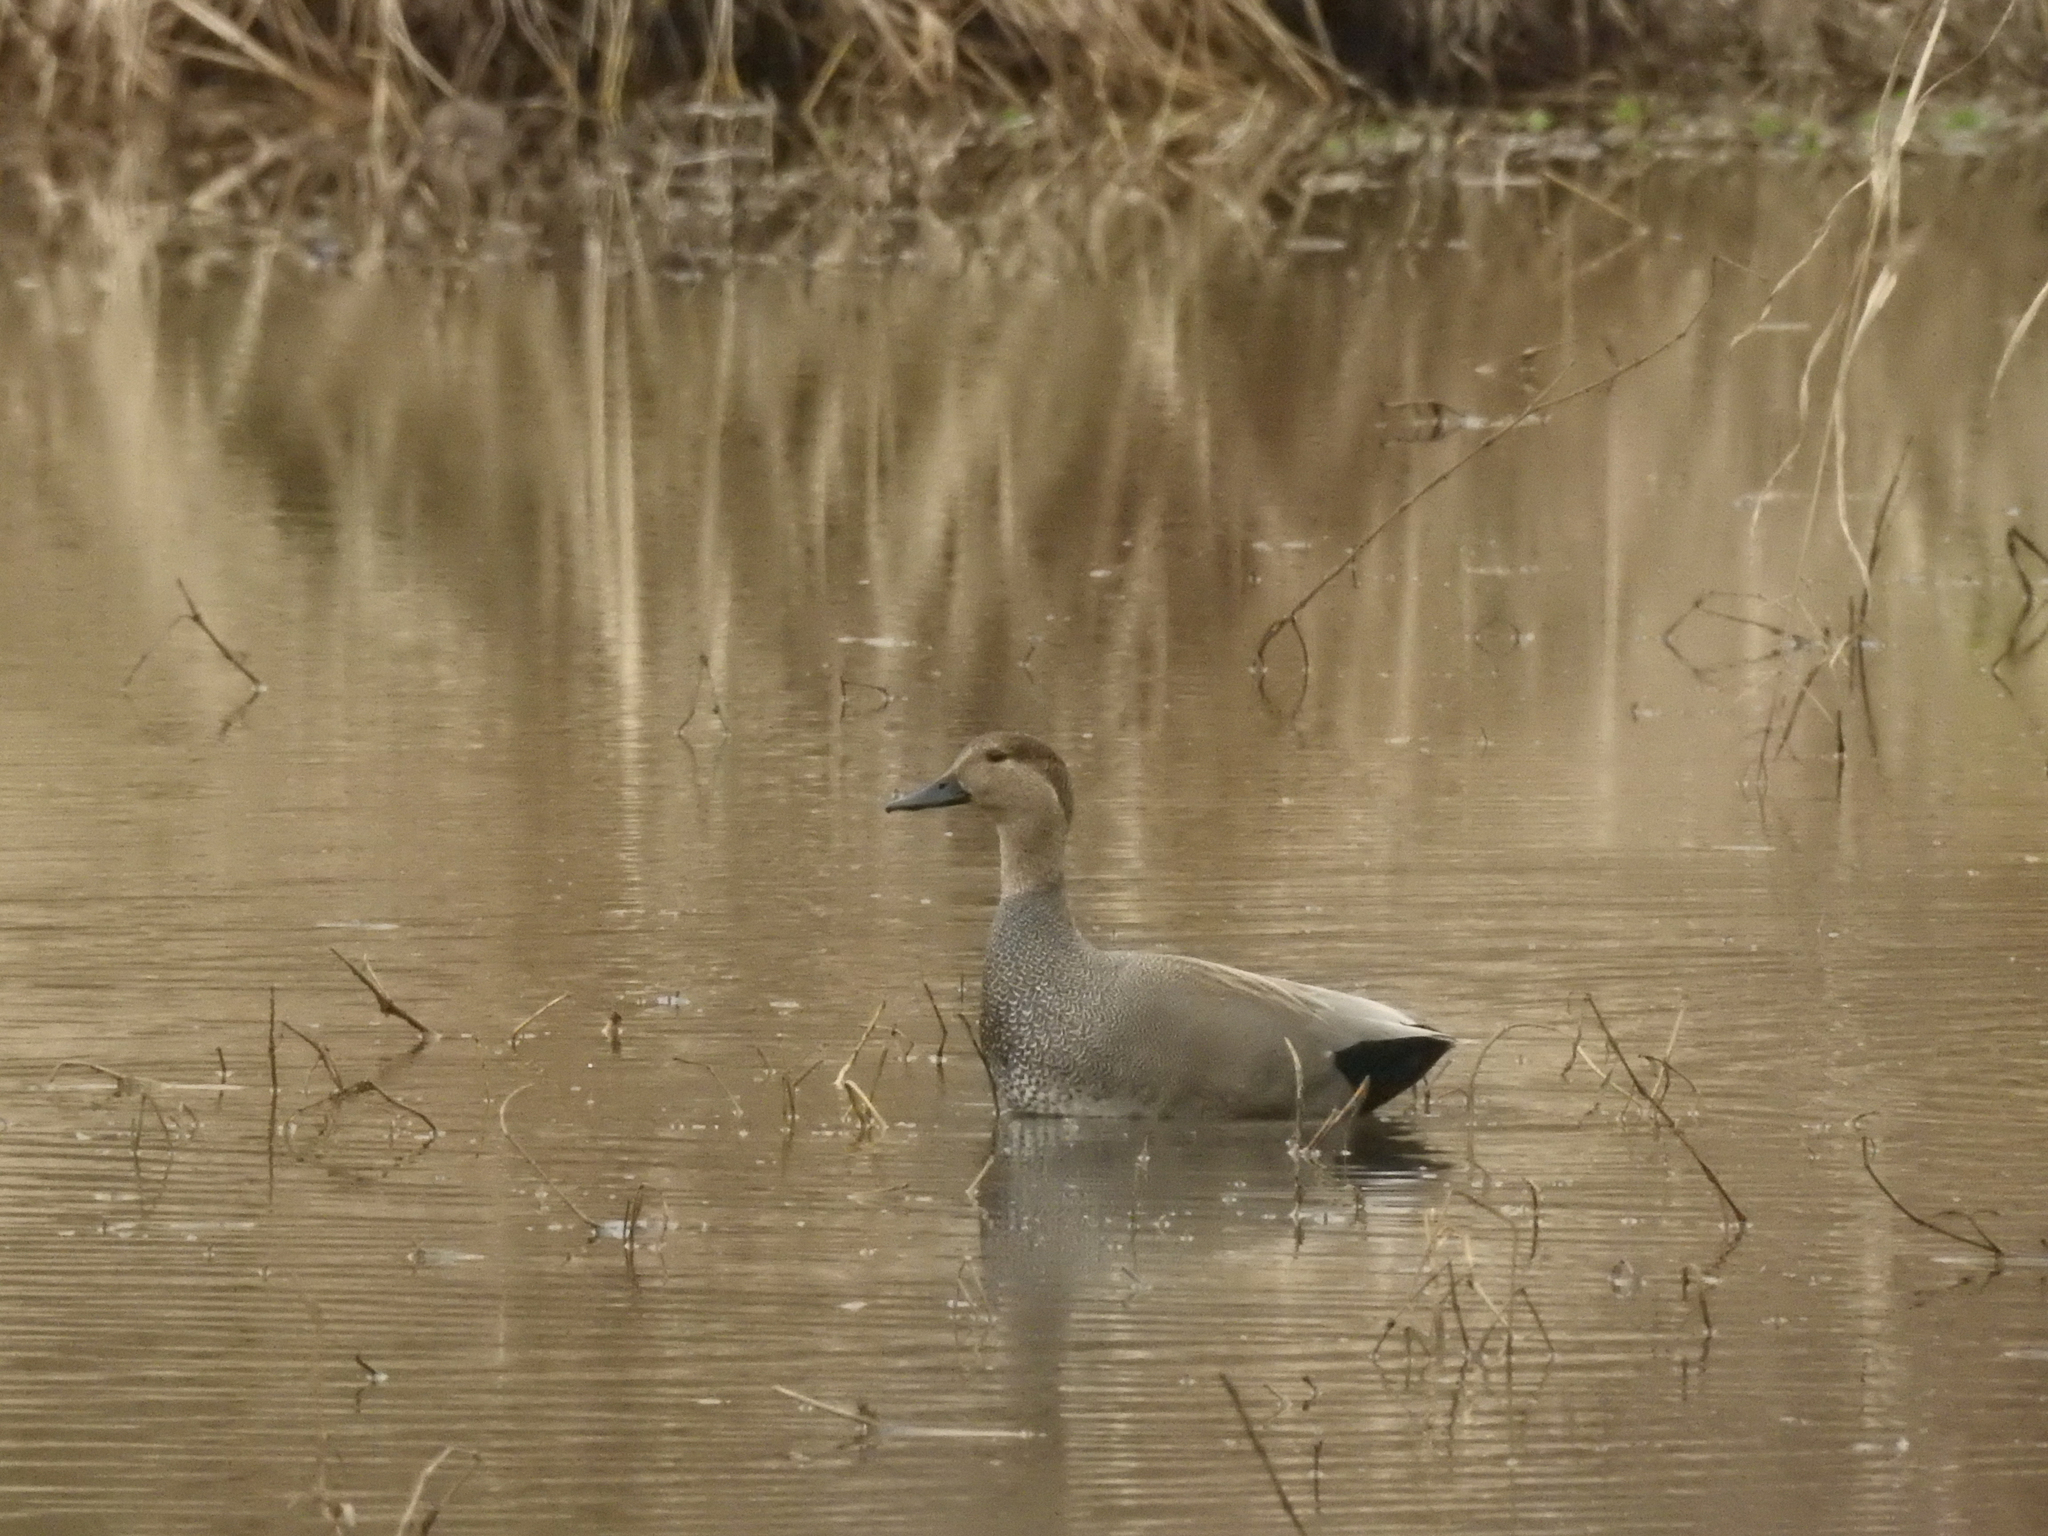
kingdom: Animalia
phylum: Chordata
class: Aves
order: Anseriformes
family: Anatidae
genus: Mareca
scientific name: Mareca strepera
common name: Gadwall
